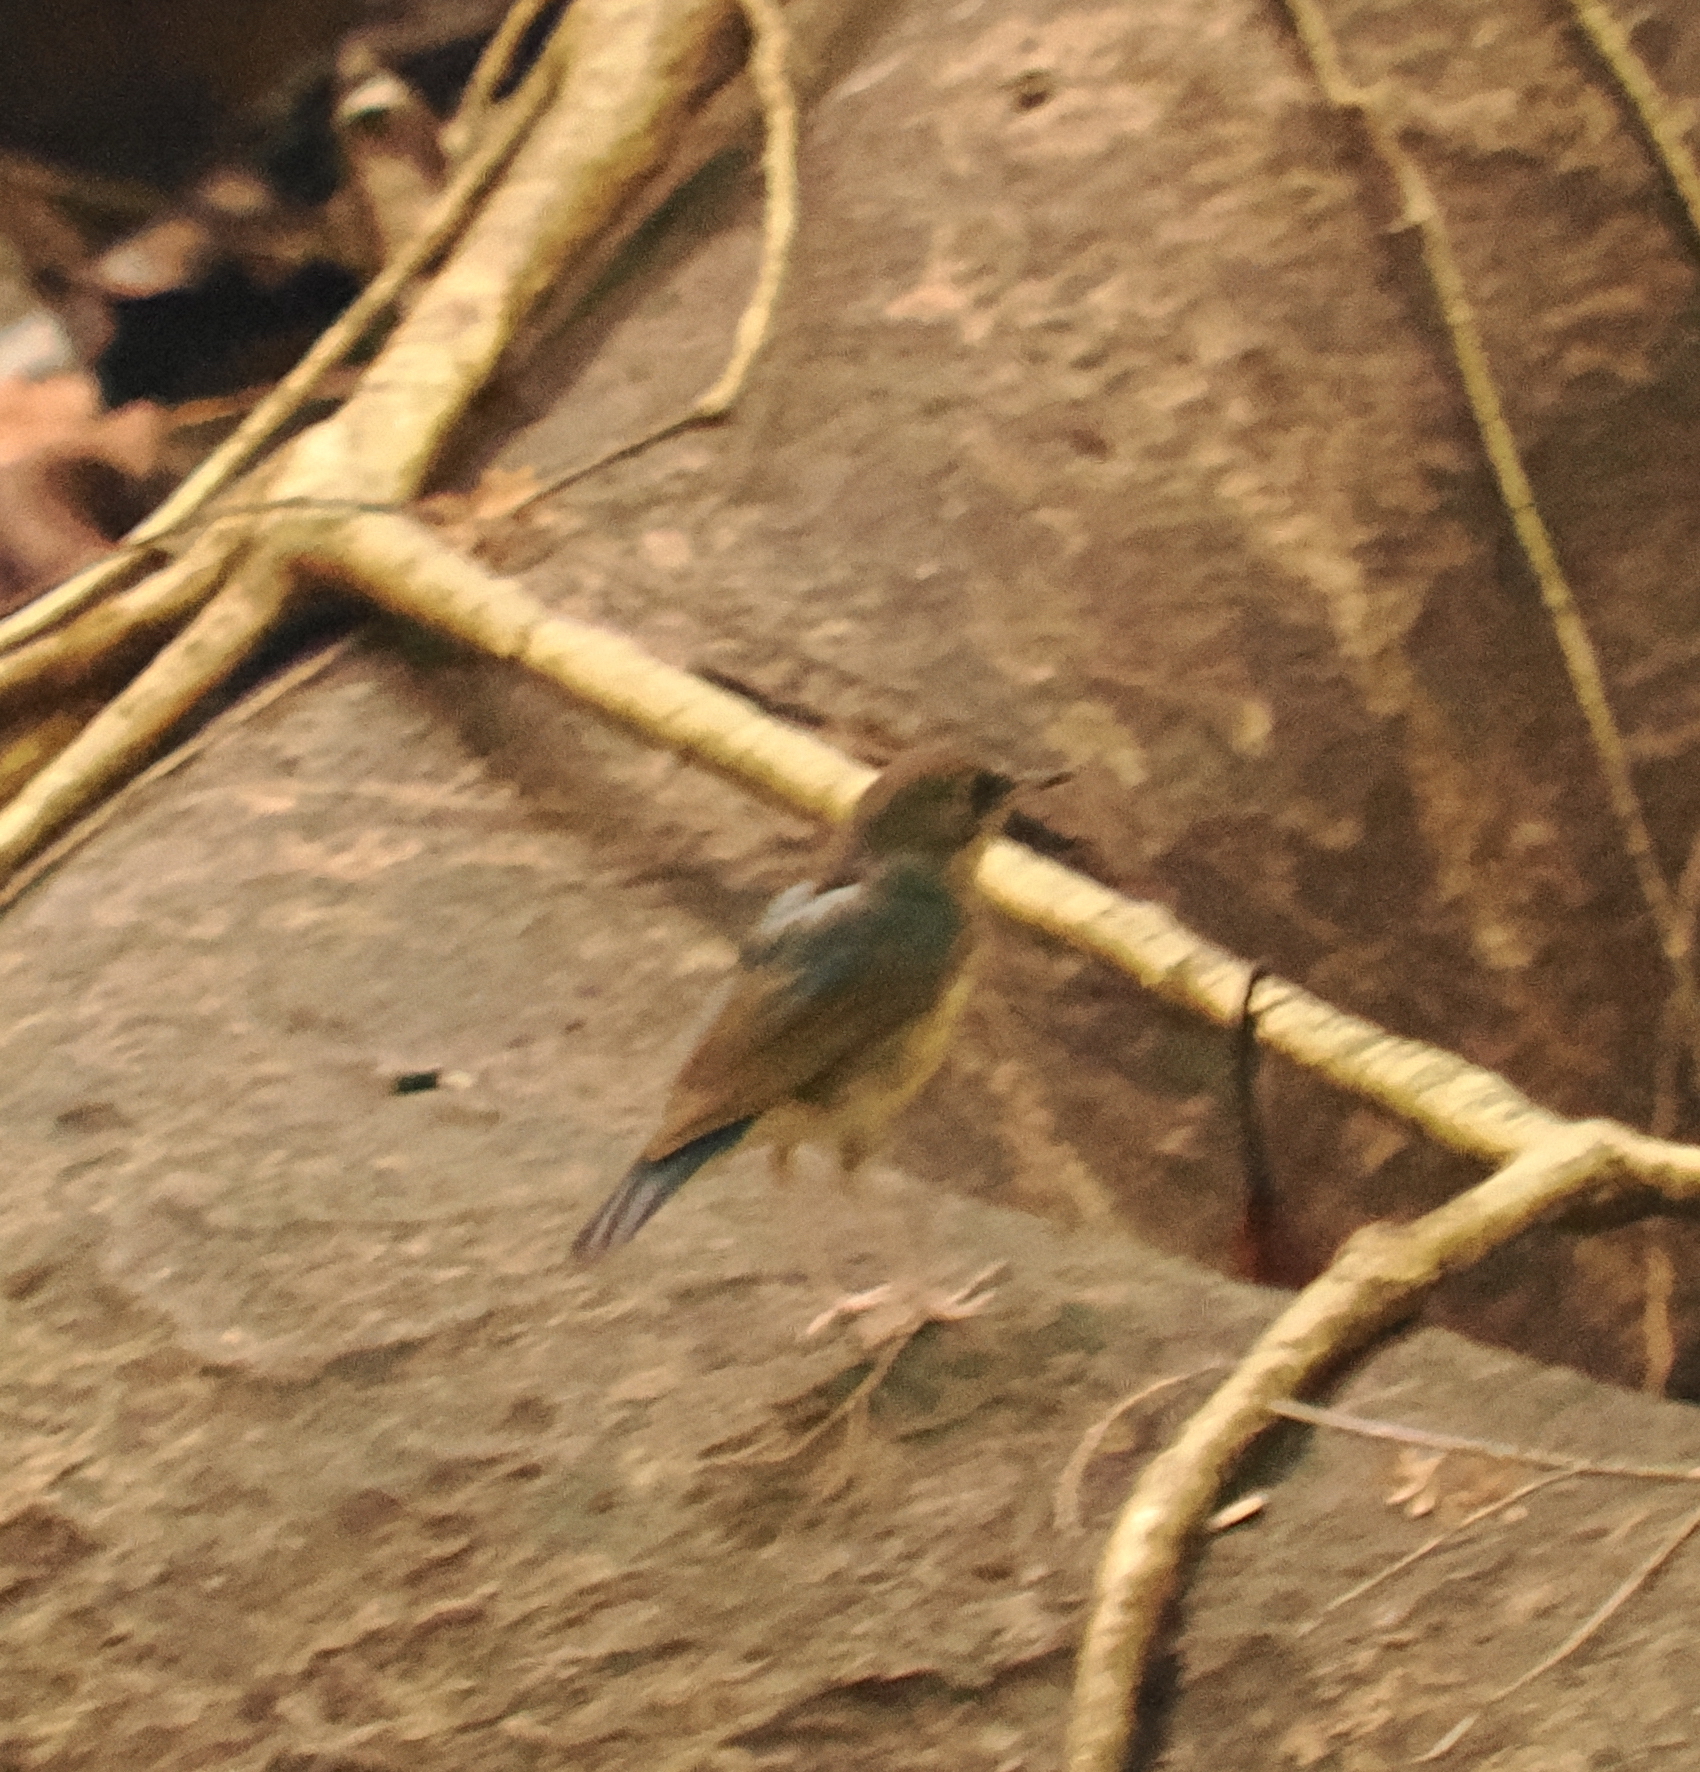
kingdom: Animalia
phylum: Chordata
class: Aves
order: Passeriformes
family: Muscicapidae
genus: Luscinia
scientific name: Luscinia cyane
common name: Siberian blue robin
